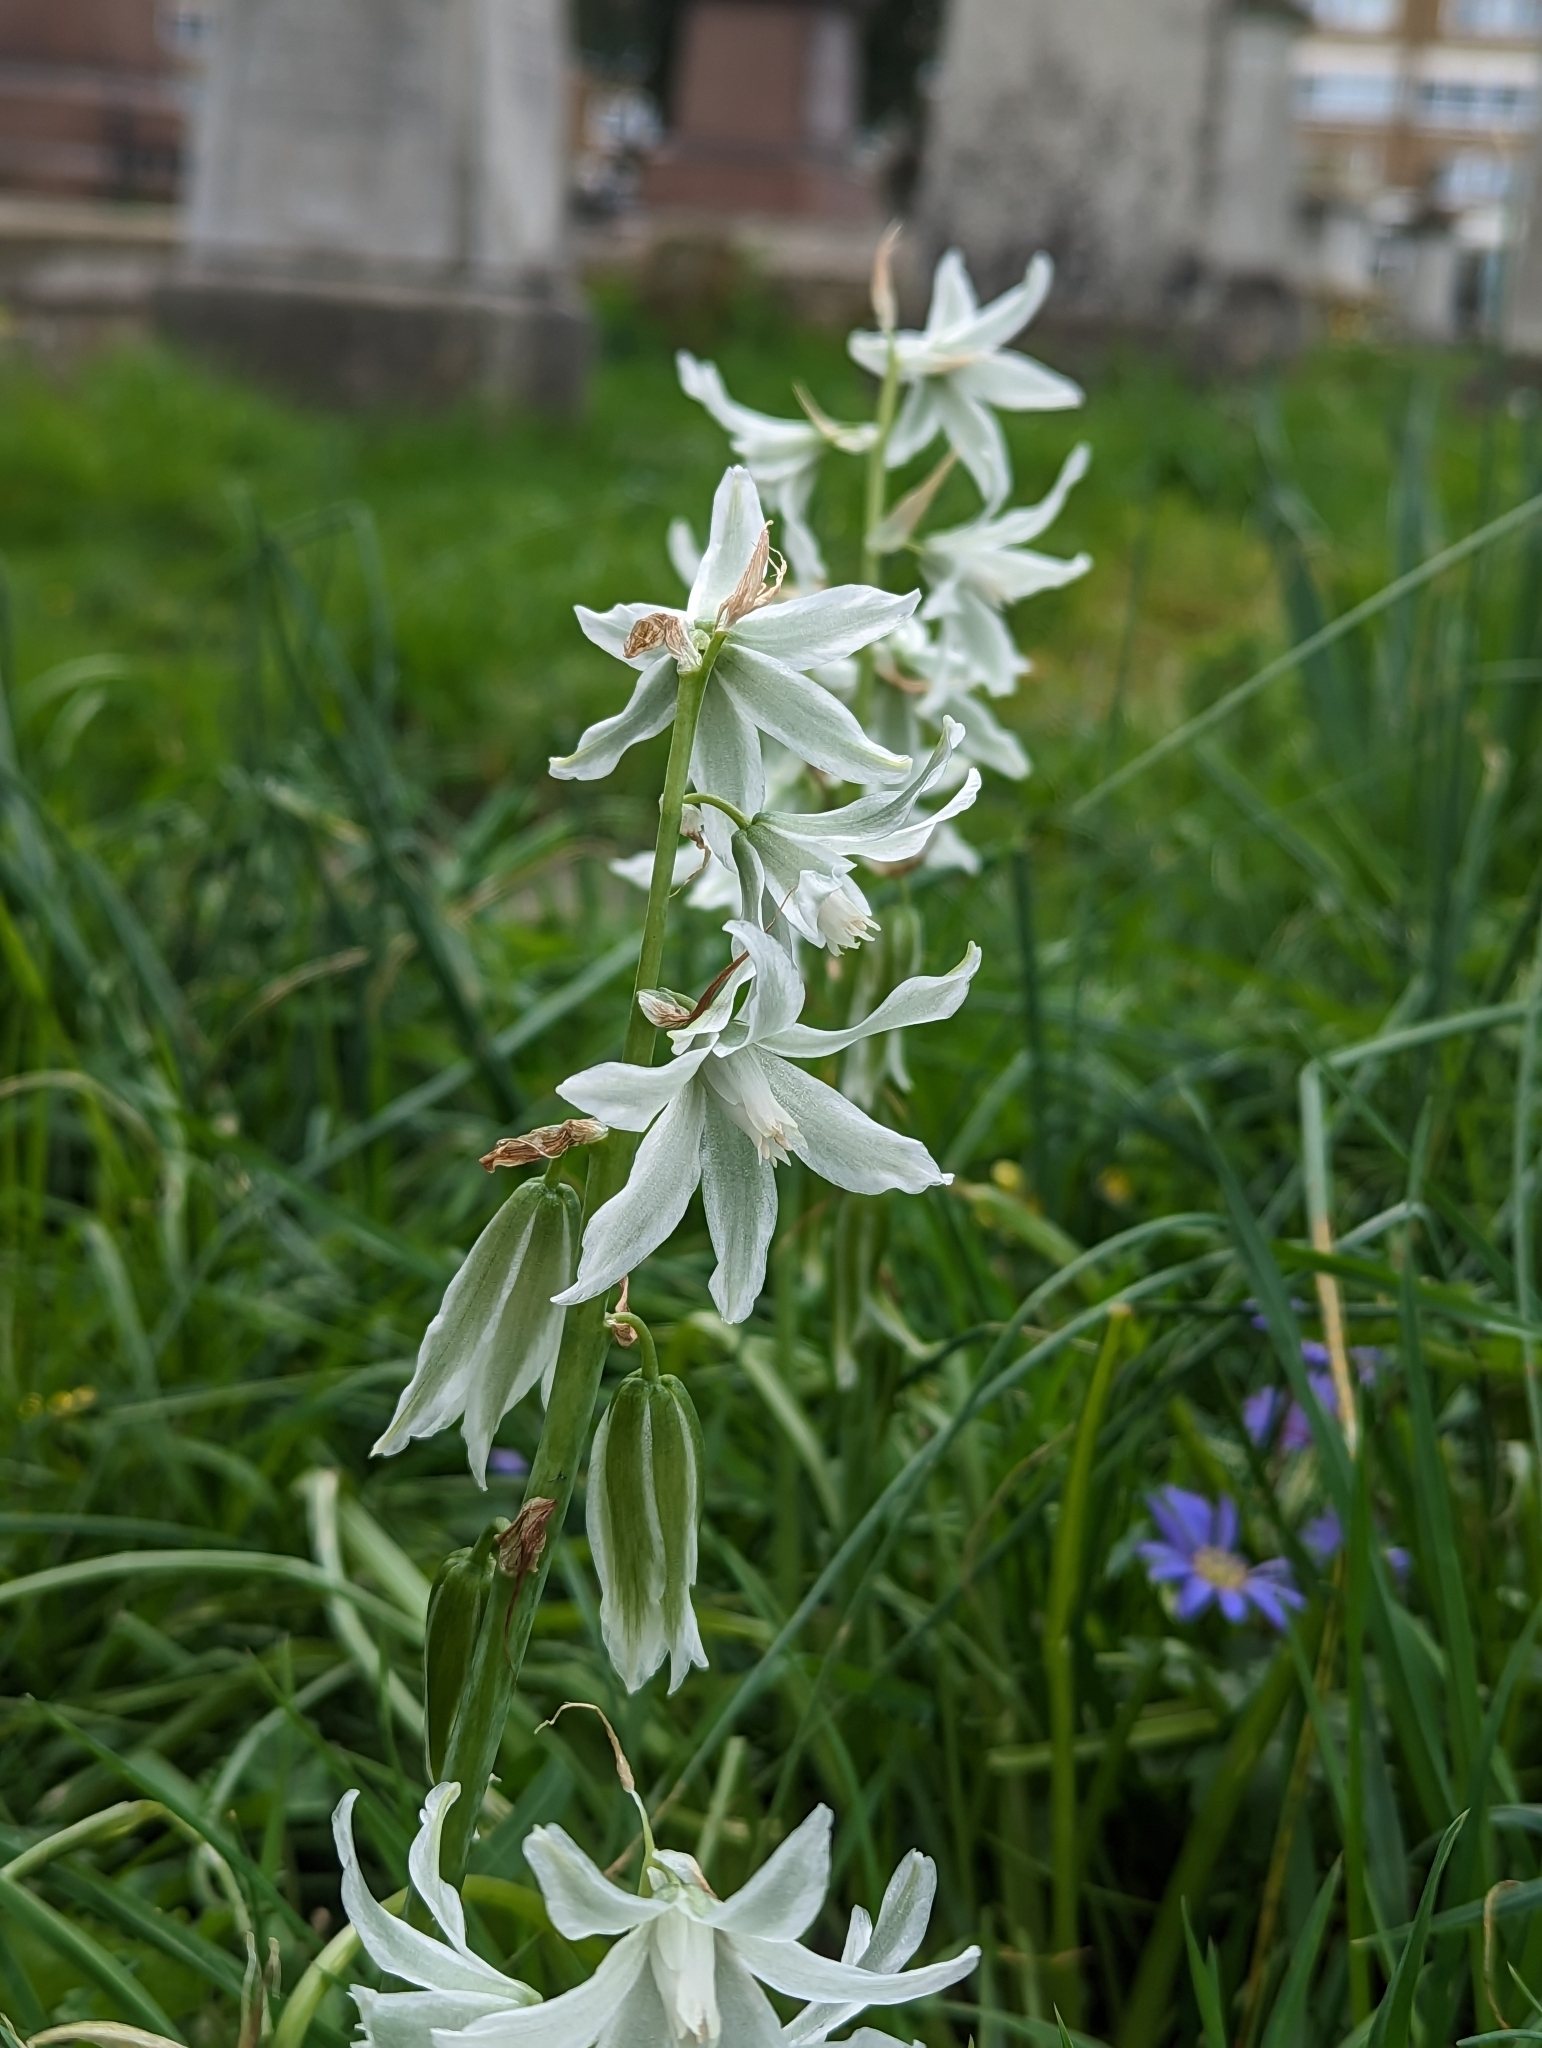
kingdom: Plantae
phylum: Tracheophyta
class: Liliopsida
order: Asparagales
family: Asparagaceae
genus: Ornithogalum
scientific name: Ornithogalum nutans
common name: Drooping star-of-bethlehem
